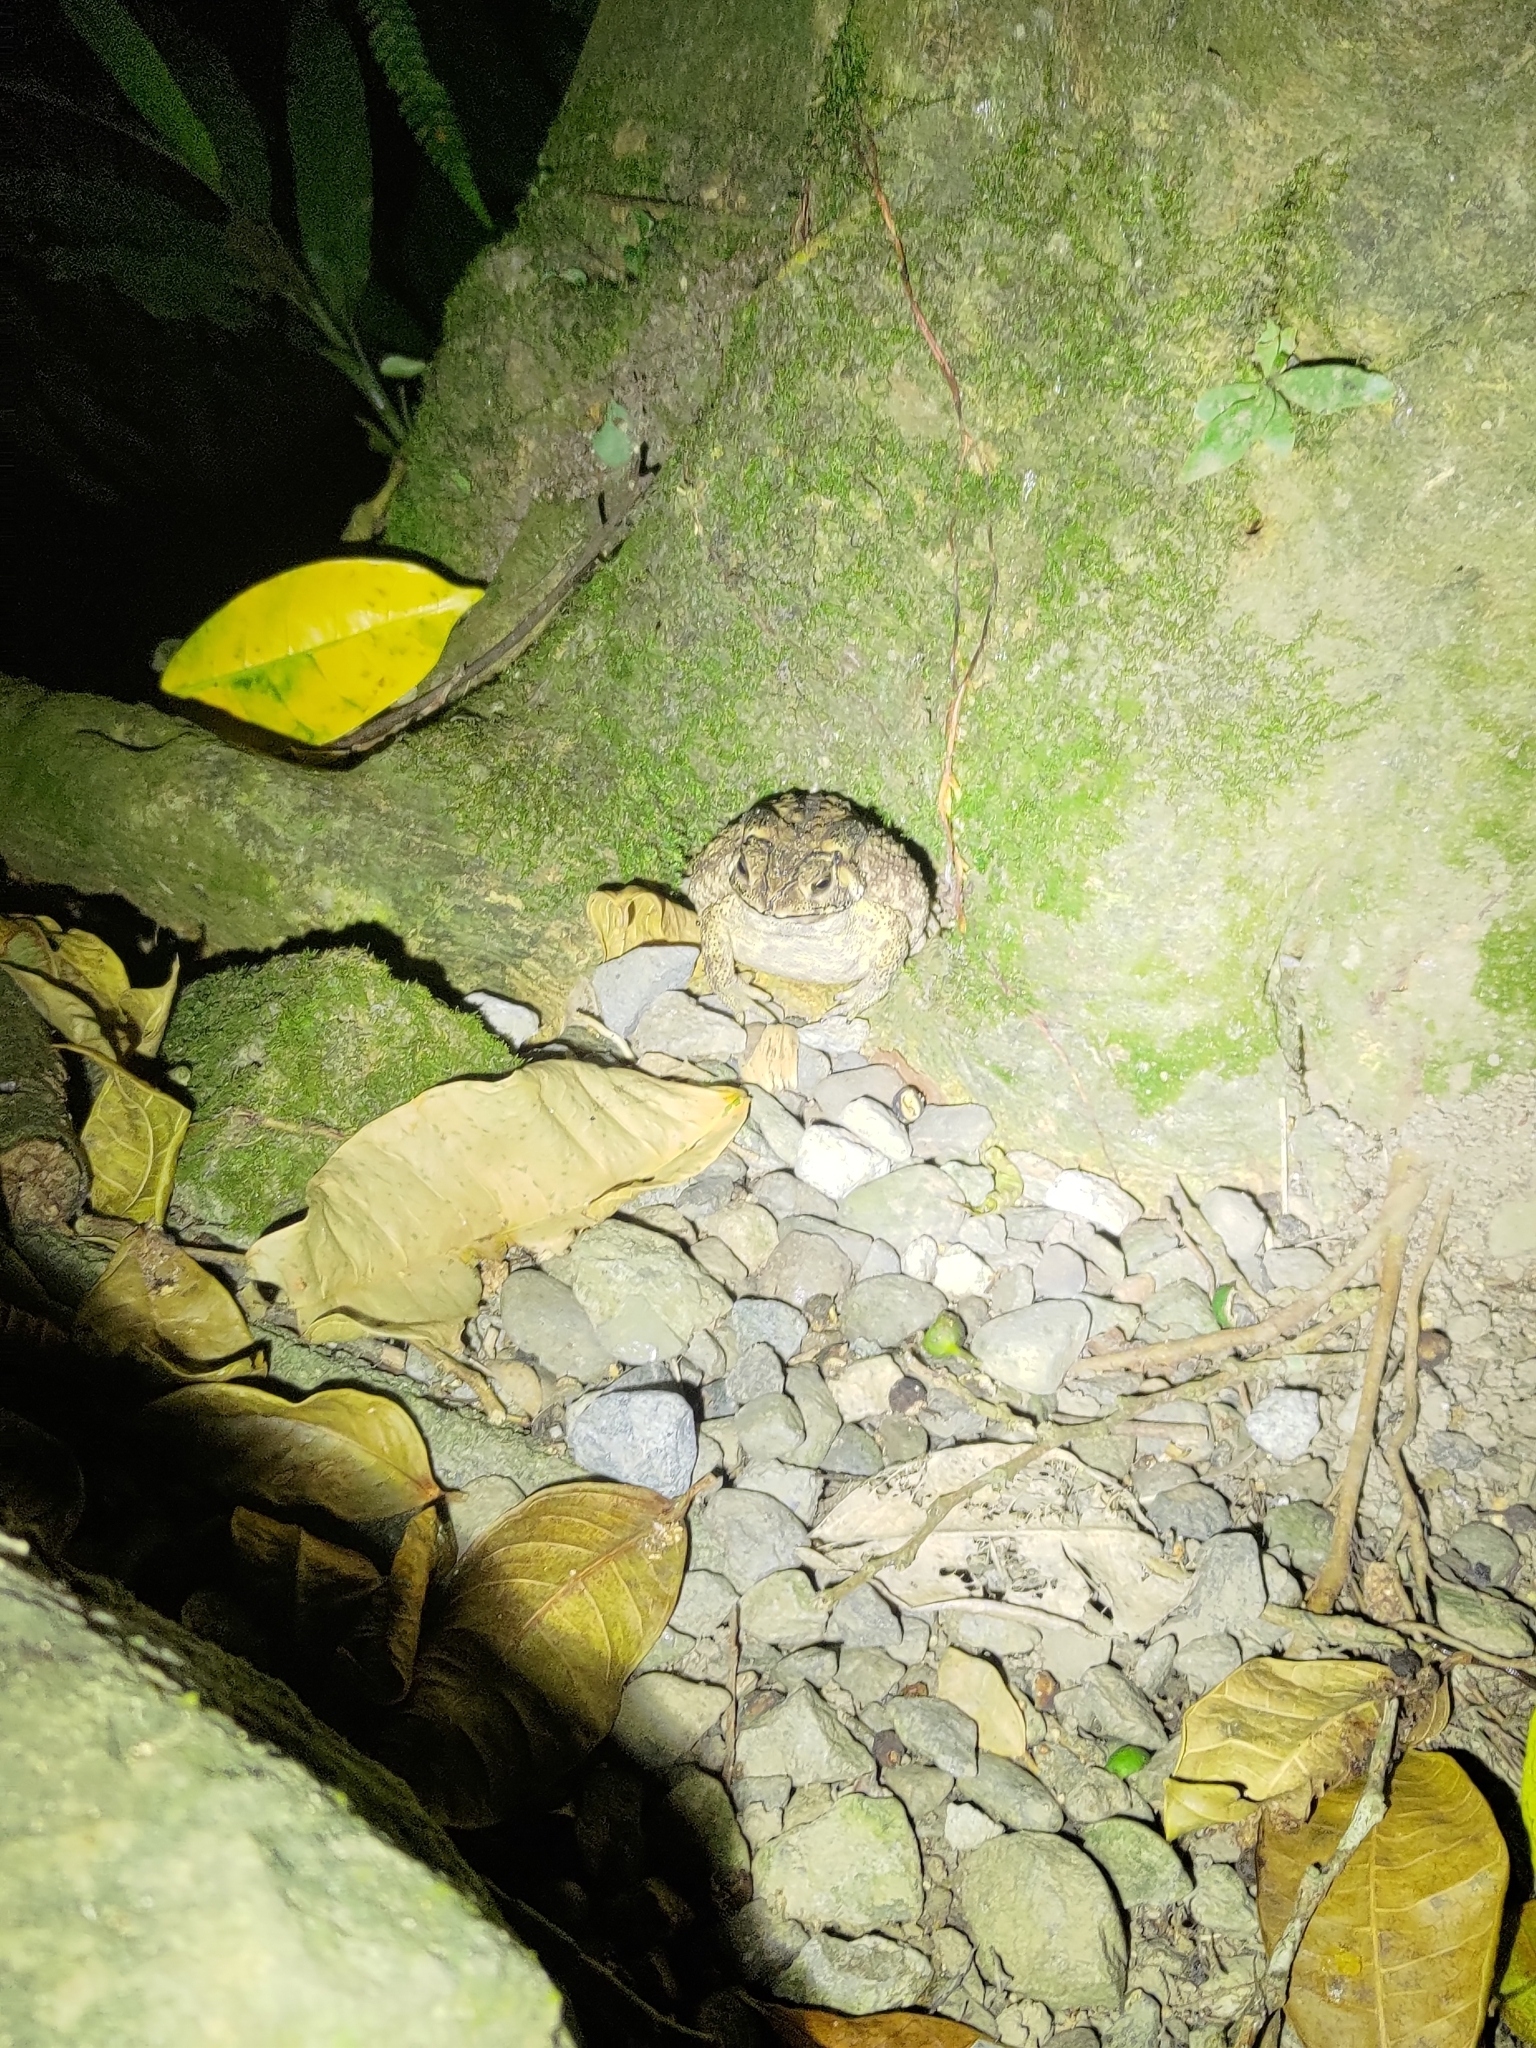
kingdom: Animalia
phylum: Chordata
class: Amphibia
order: Anura
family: Bufonidae
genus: Duttaphrynus
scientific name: Duttaphrynus melanostictus
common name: Common sunda toad
